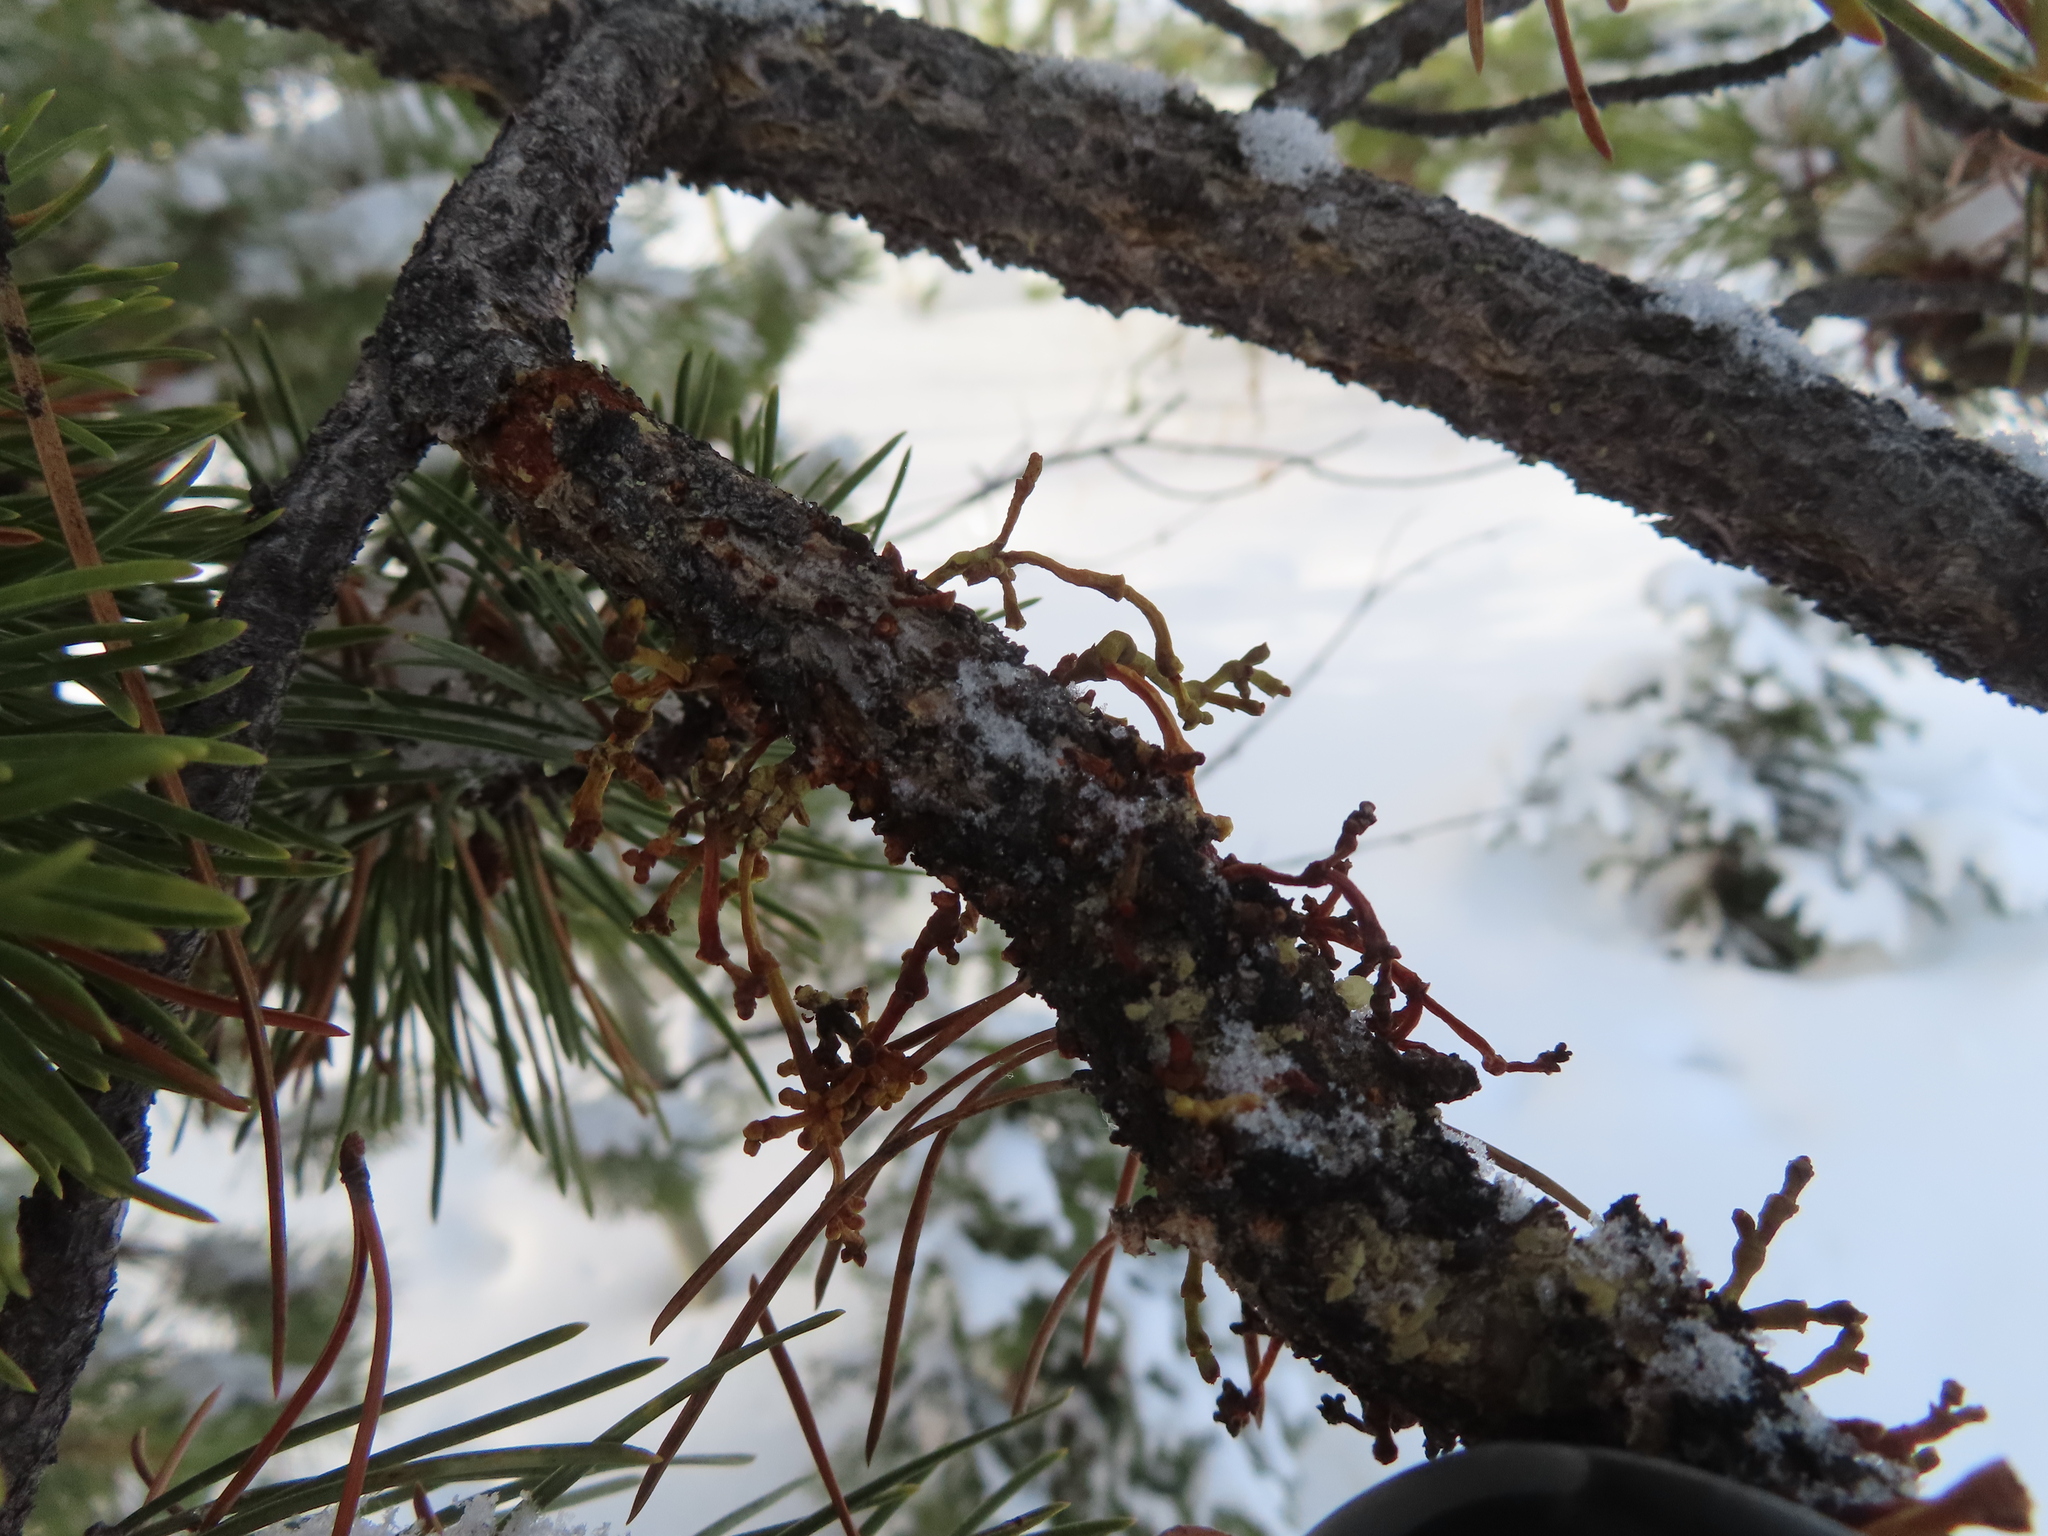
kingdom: Plantae
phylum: Tracheophyta
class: Magnoliopsida
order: Santalales
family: Viscaceae
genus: Arceuthobium
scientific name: Arceuthobium americanum
